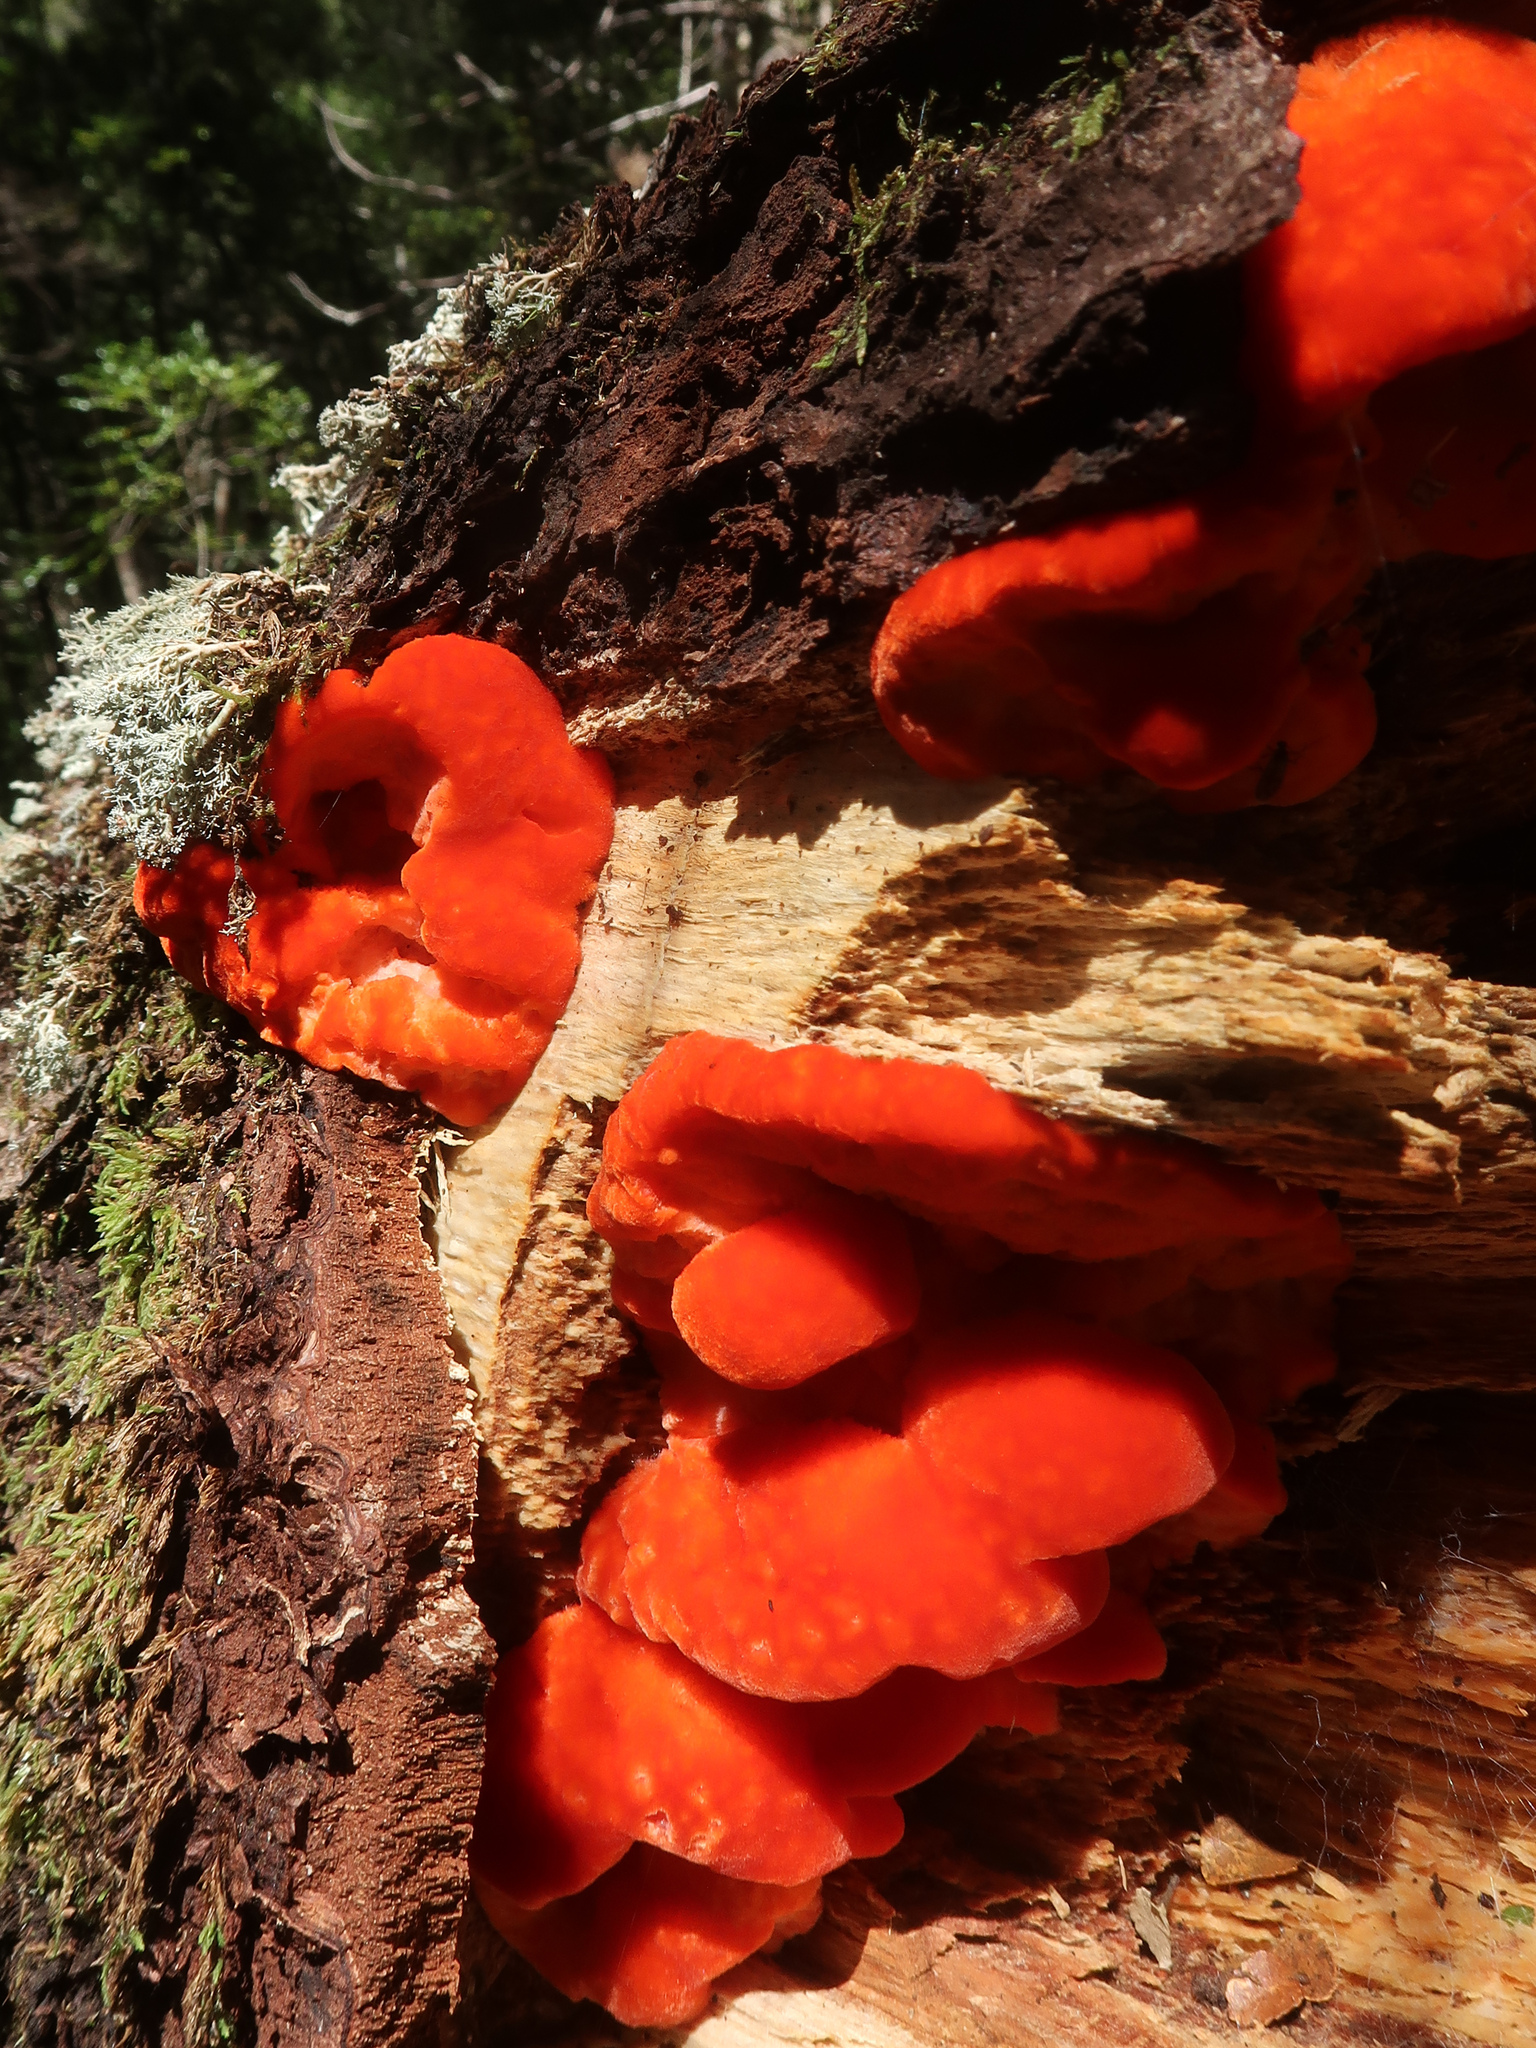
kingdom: Fungi
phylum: Basidiomycota
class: Agaricomycetes
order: Polyporales
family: Incrustoporiaceae
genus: Tyromyces
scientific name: Tyromyces pulcherrimus
